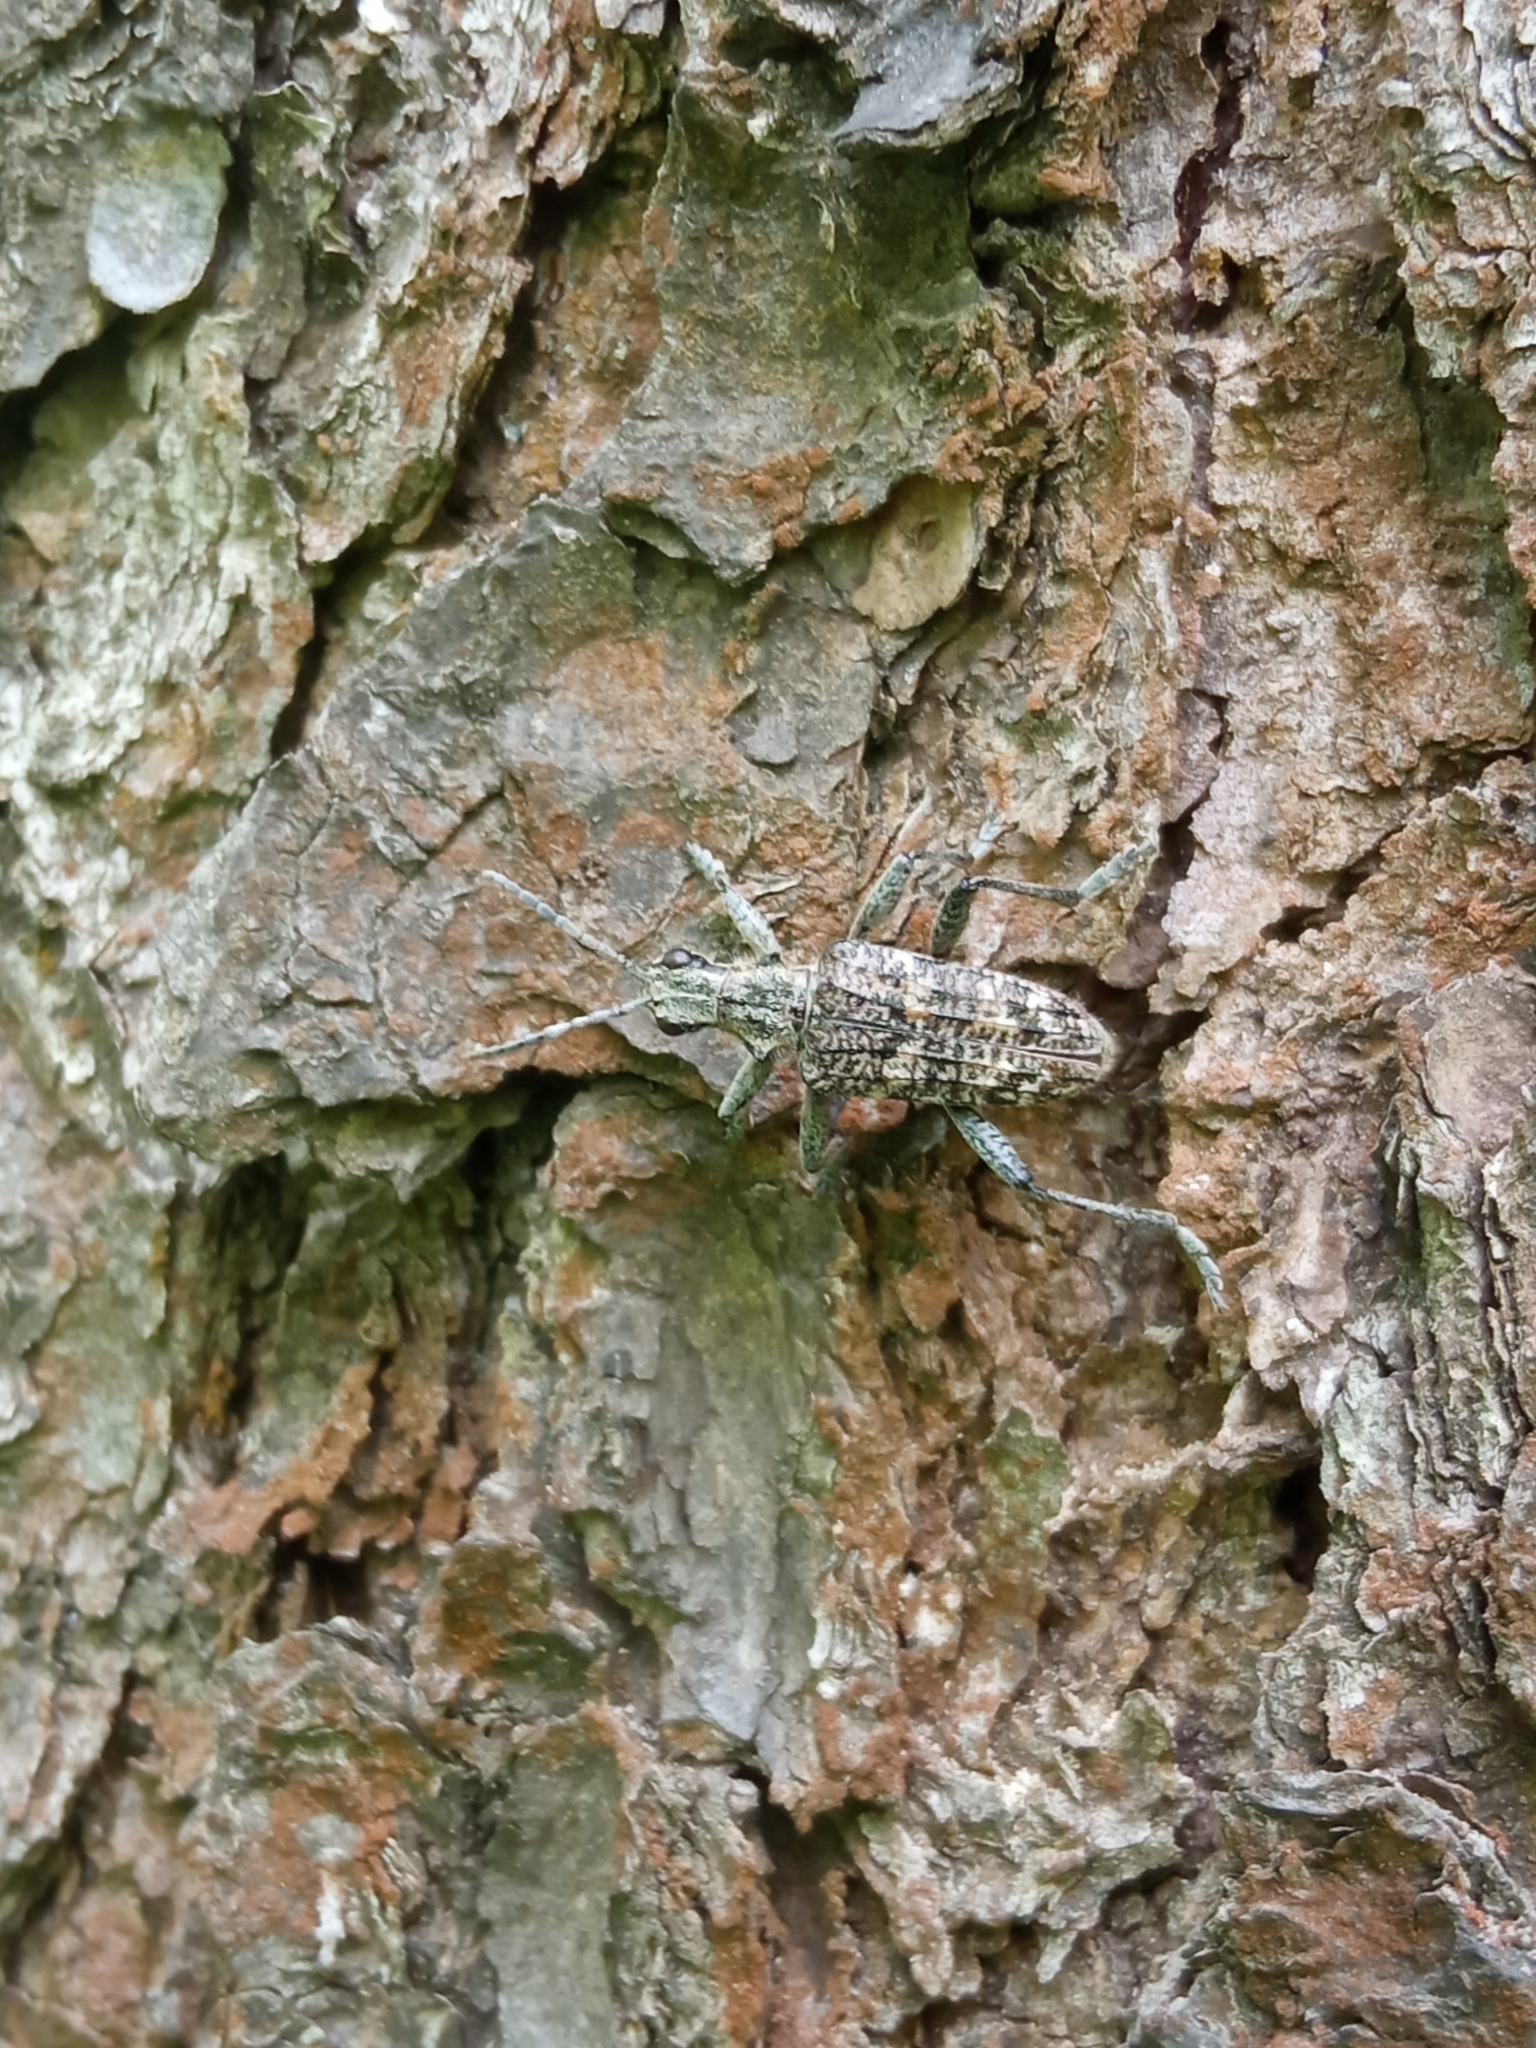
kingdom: Animalia
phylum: Arthropoda
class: Insecta
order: Coleoptera
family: Cerambycidae
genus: Rhagium
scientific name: Rhagium inquisitor
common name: Ribbed pine borer
